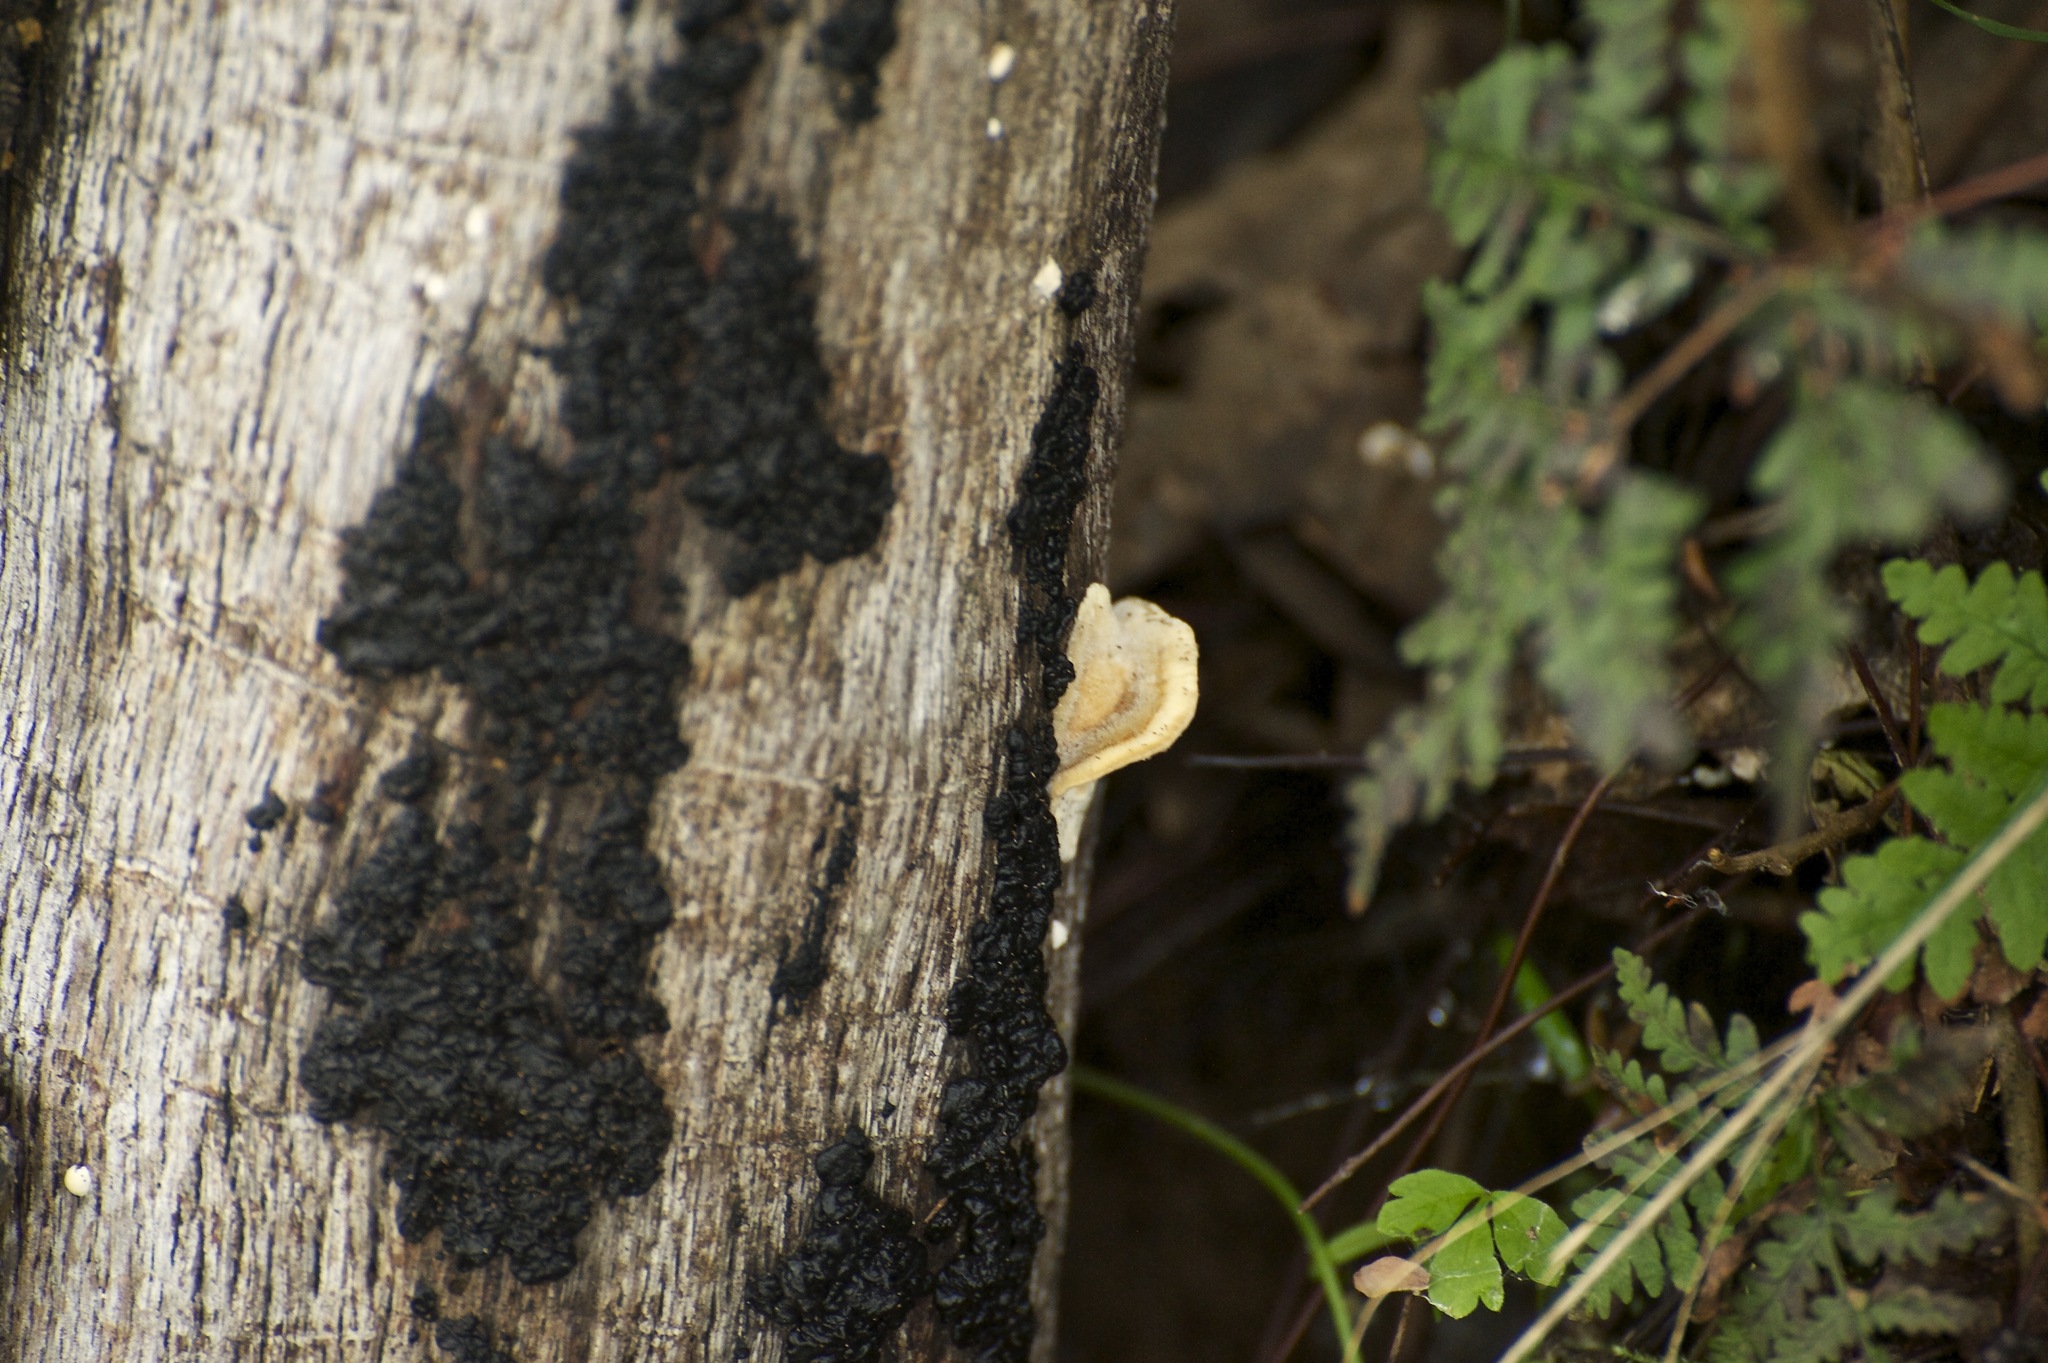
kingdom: Fungi
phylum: Basidiomycota
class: Agaricomycetes
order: Auriculariales
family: Auriculariaceae
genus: Exidia
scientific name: Exidia glandulosa
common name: Witches' butter
